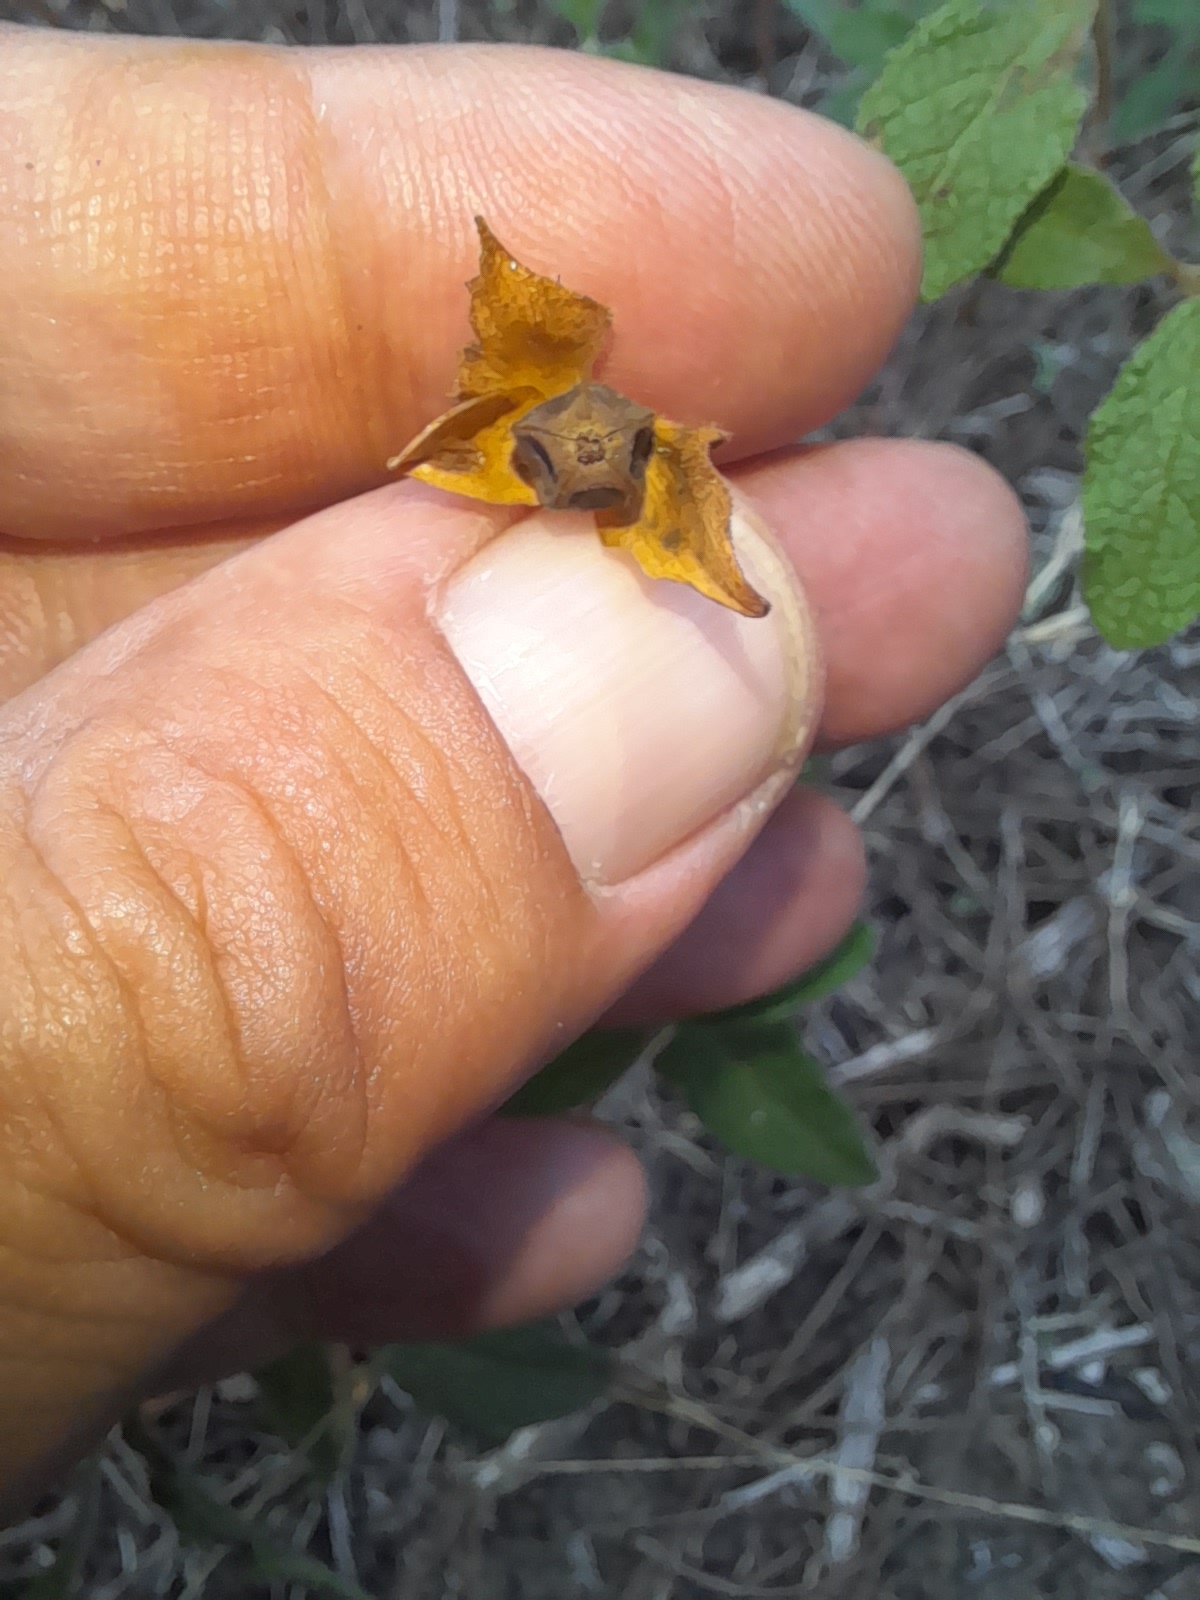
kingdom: Plantae
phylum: Tracheophyta
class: Magnoliopsida
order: Malvales
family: Cistaceae
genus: Cistus
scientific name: Cistus salviifolius
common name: Salvia cistus
